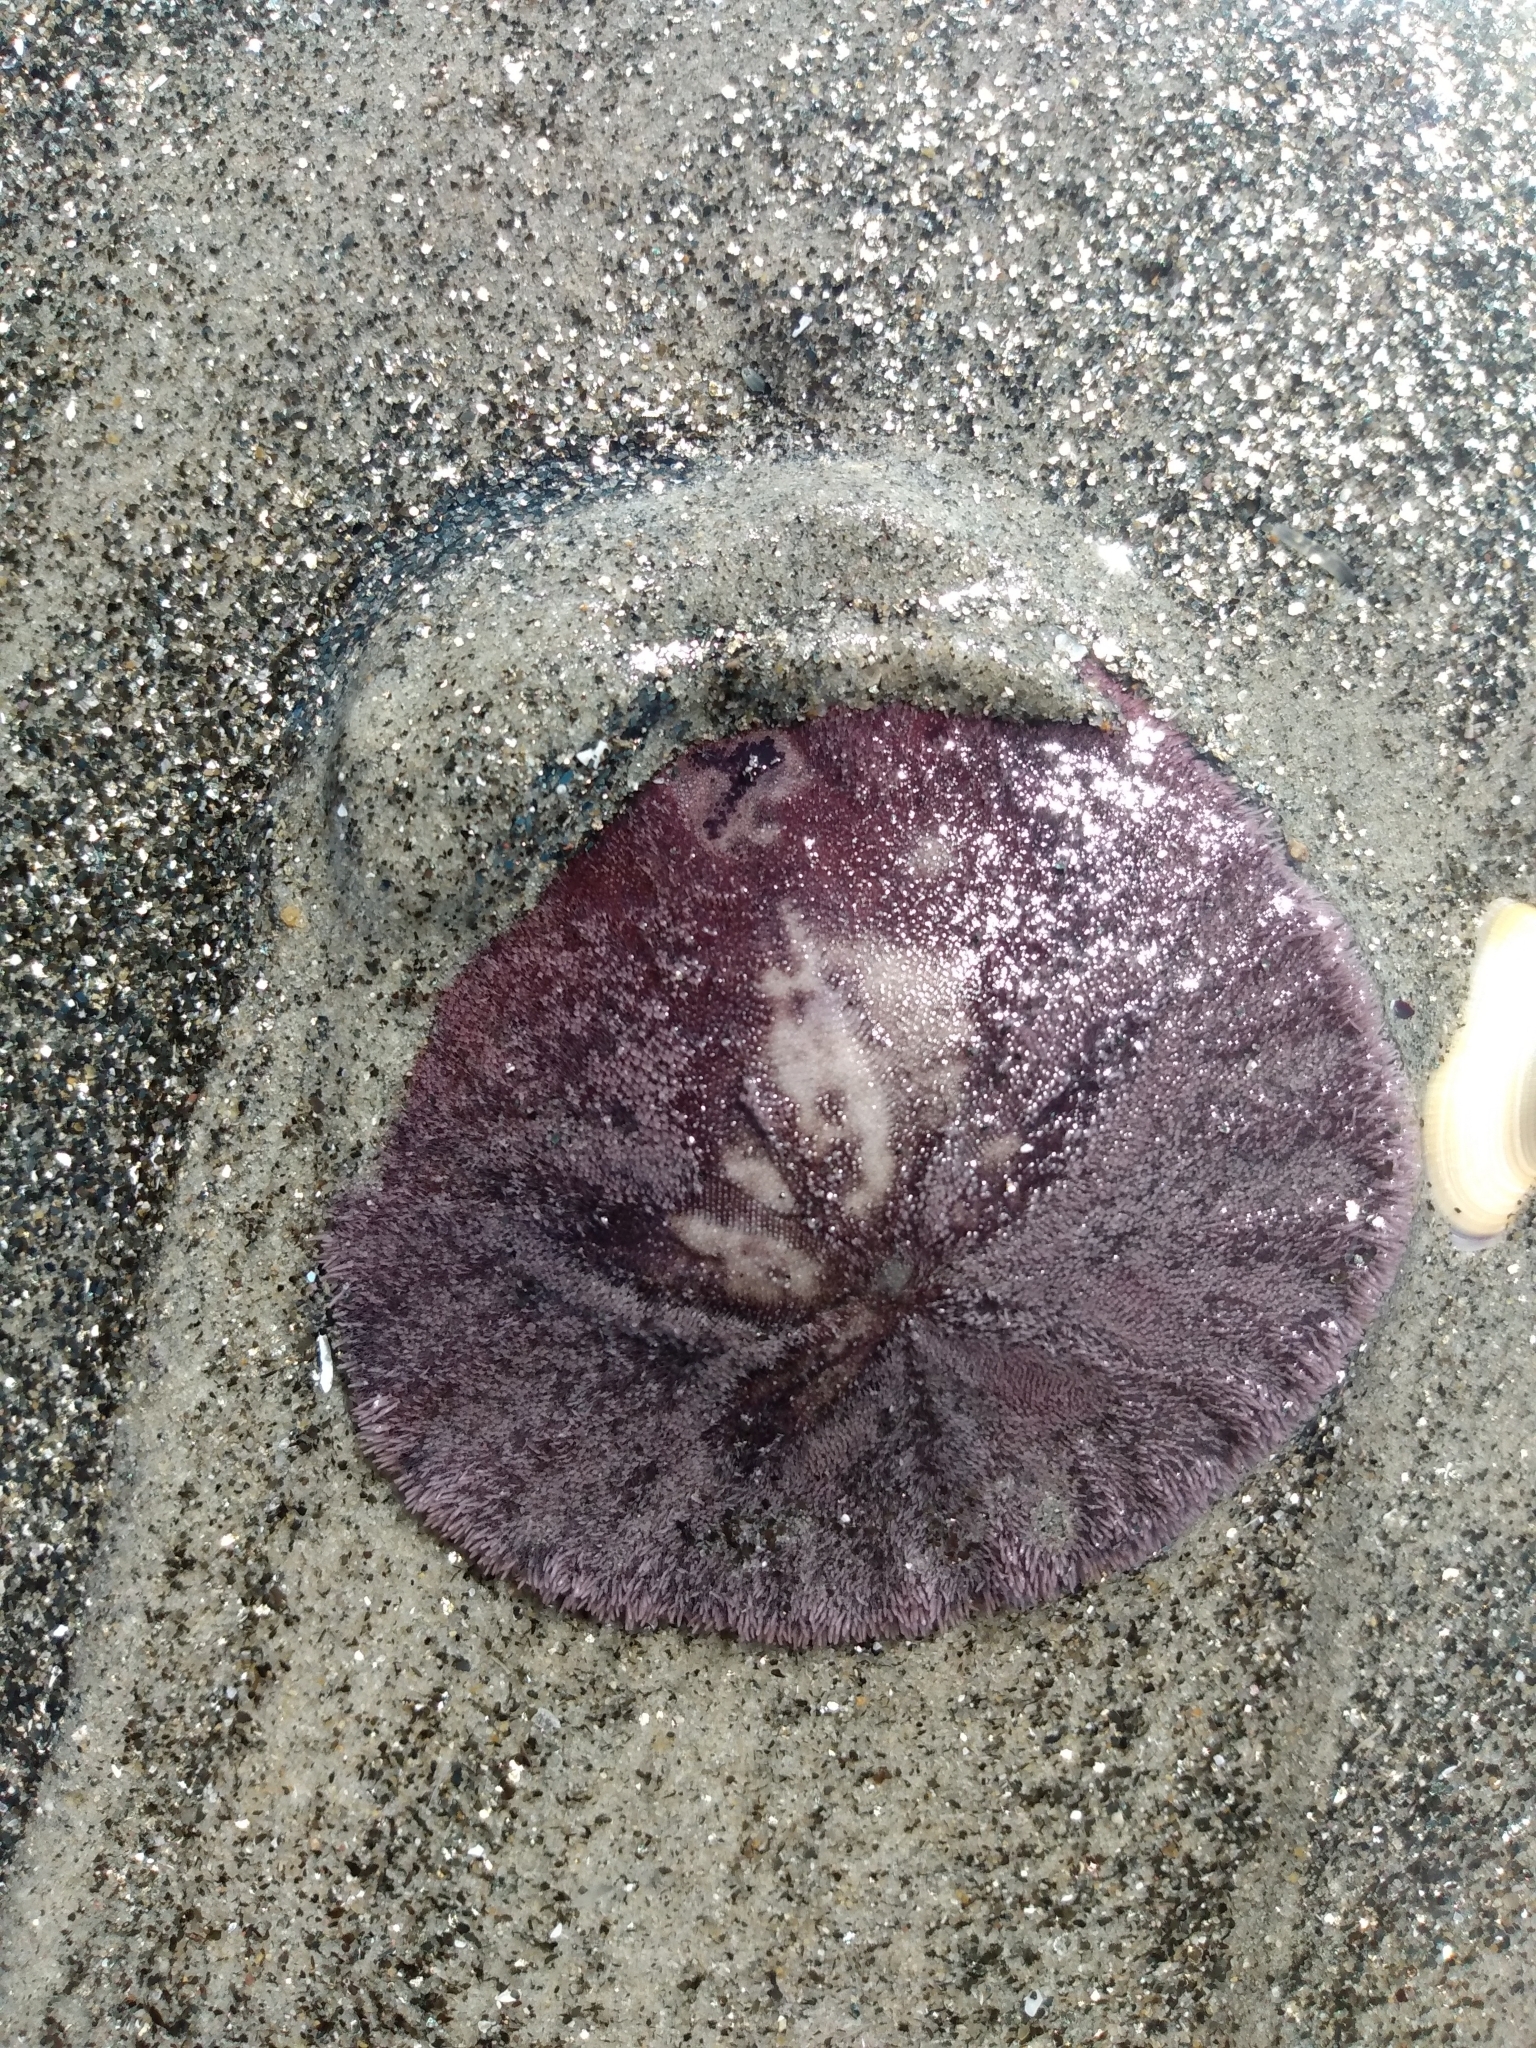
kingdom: Animalia
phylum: Echinodermata
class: Echinoidea
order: Echinolampadacea
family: Dendrasteridae
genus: Dendraster
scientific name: Dendraster excentricus
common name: Eccentric sand dollar sea urchin
